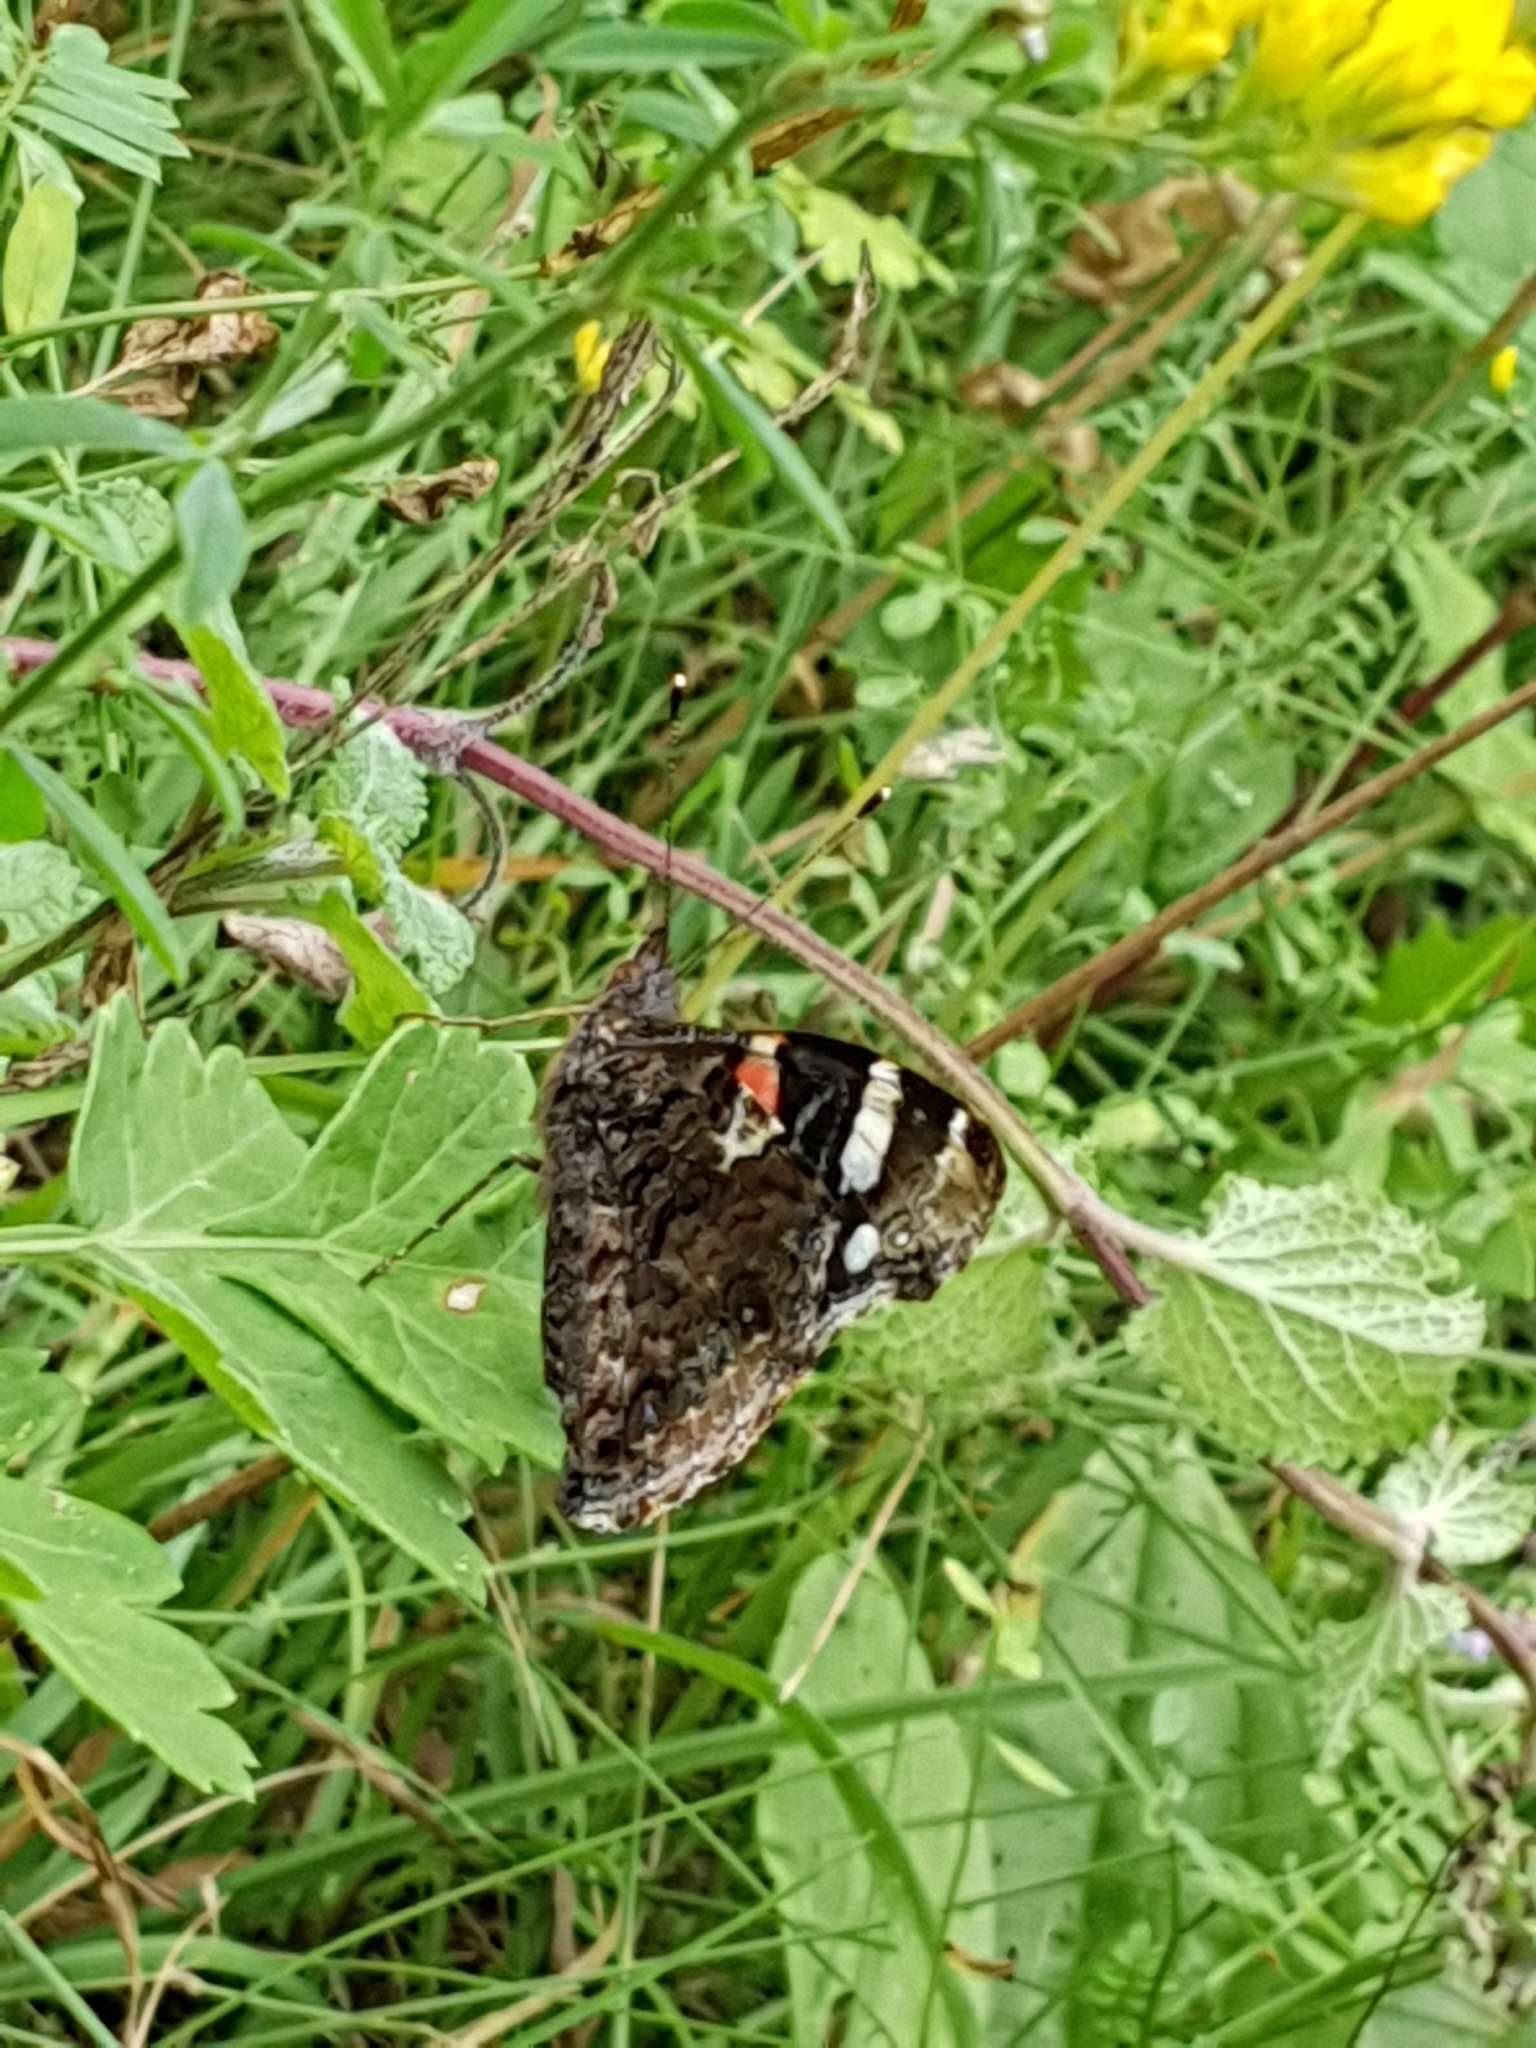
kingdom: Animalia
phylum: Arthropoda
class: Insecta
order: Lepidoptera
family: Nymphalidae
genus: Vanessa
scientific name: Vanessa atalanta
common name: Red admiral
